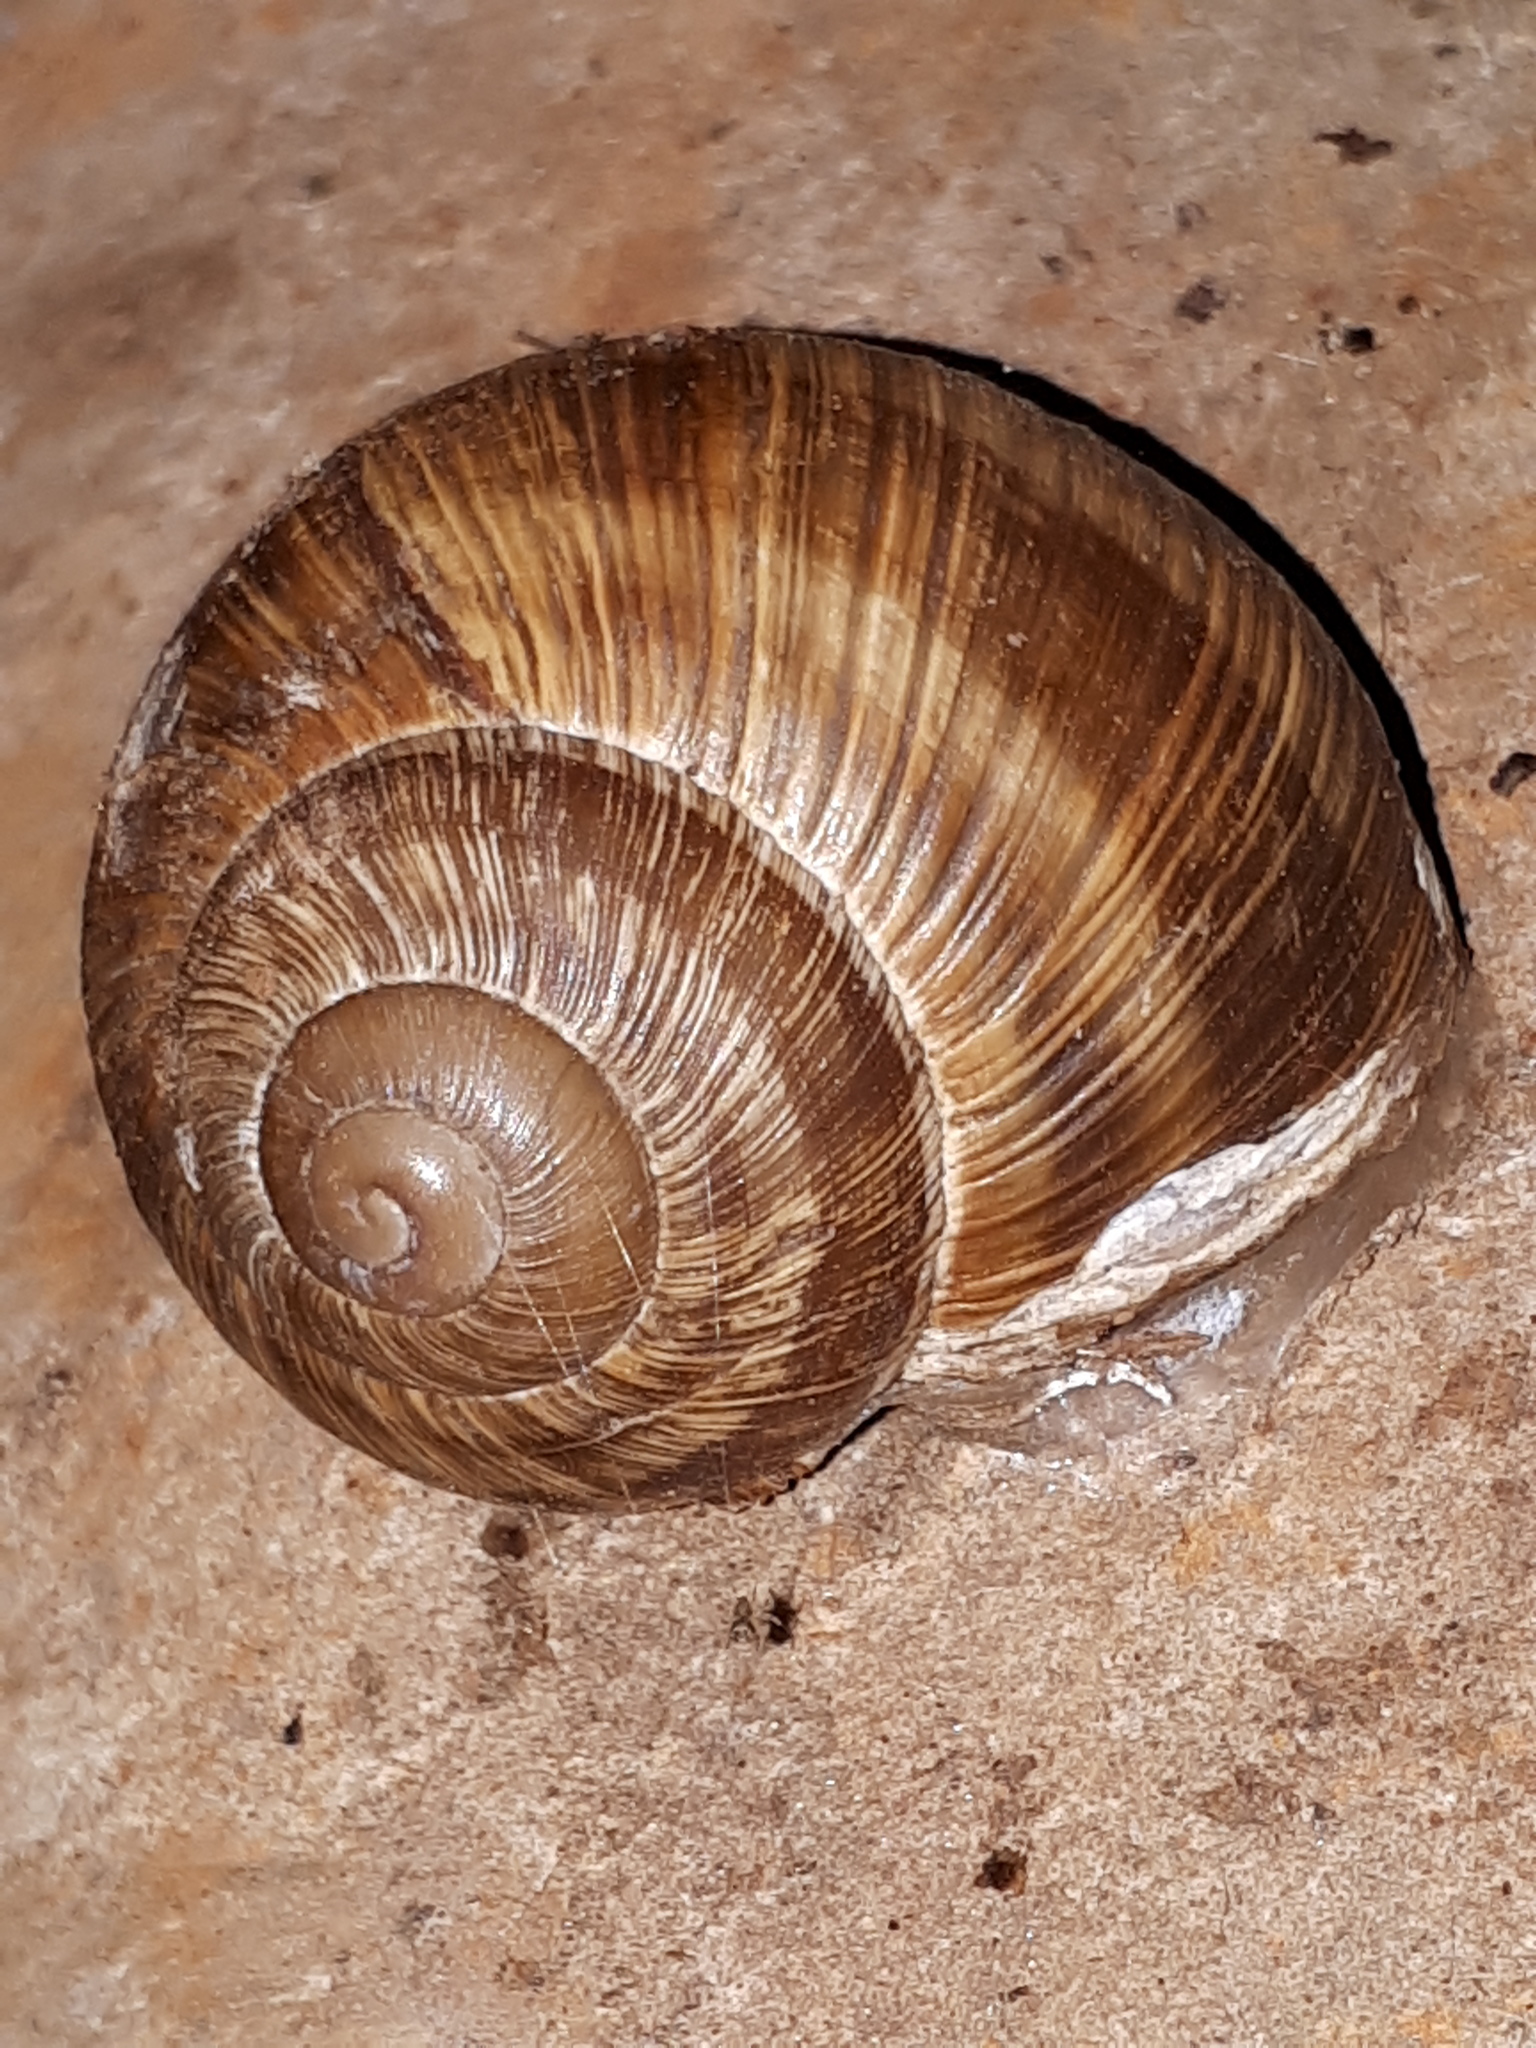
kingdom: Animalia
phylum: Mollusca
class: Gastropoda
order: Stylommatophora
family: Helicidae
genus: Helix
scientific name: Helix pomatia
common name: Roman snail
